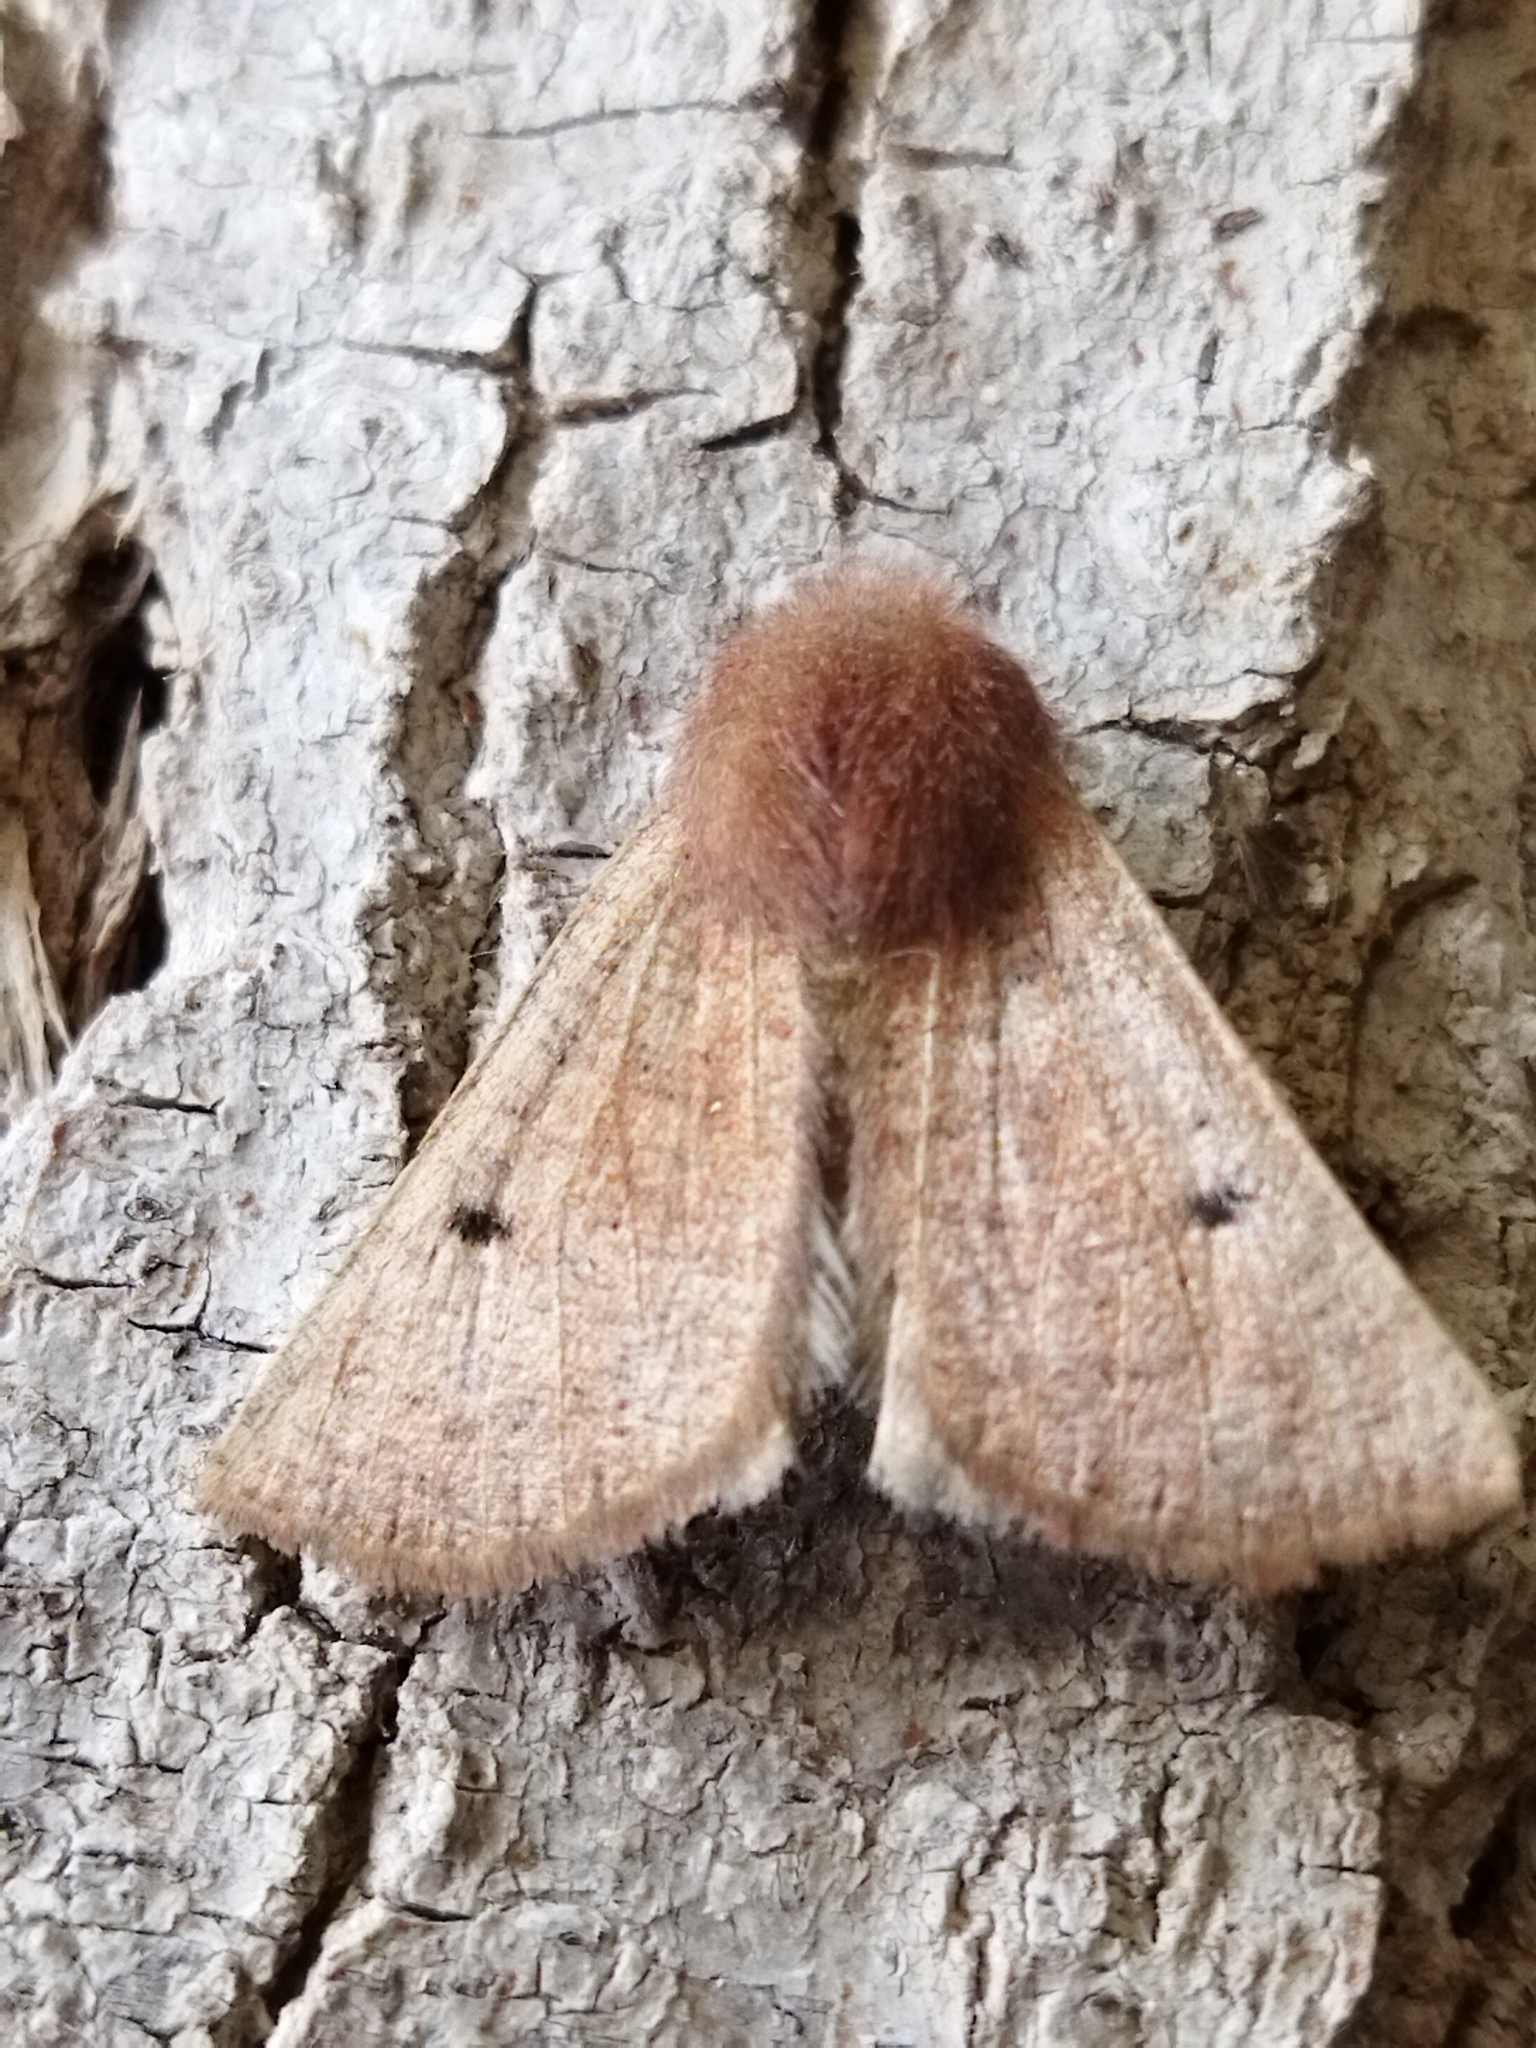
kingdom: Animalia
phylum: Arthropoda
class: Insecta
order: Lepidoptera
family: Geometridae
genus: Dasycorsa
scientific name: Dasycorsa modesta
